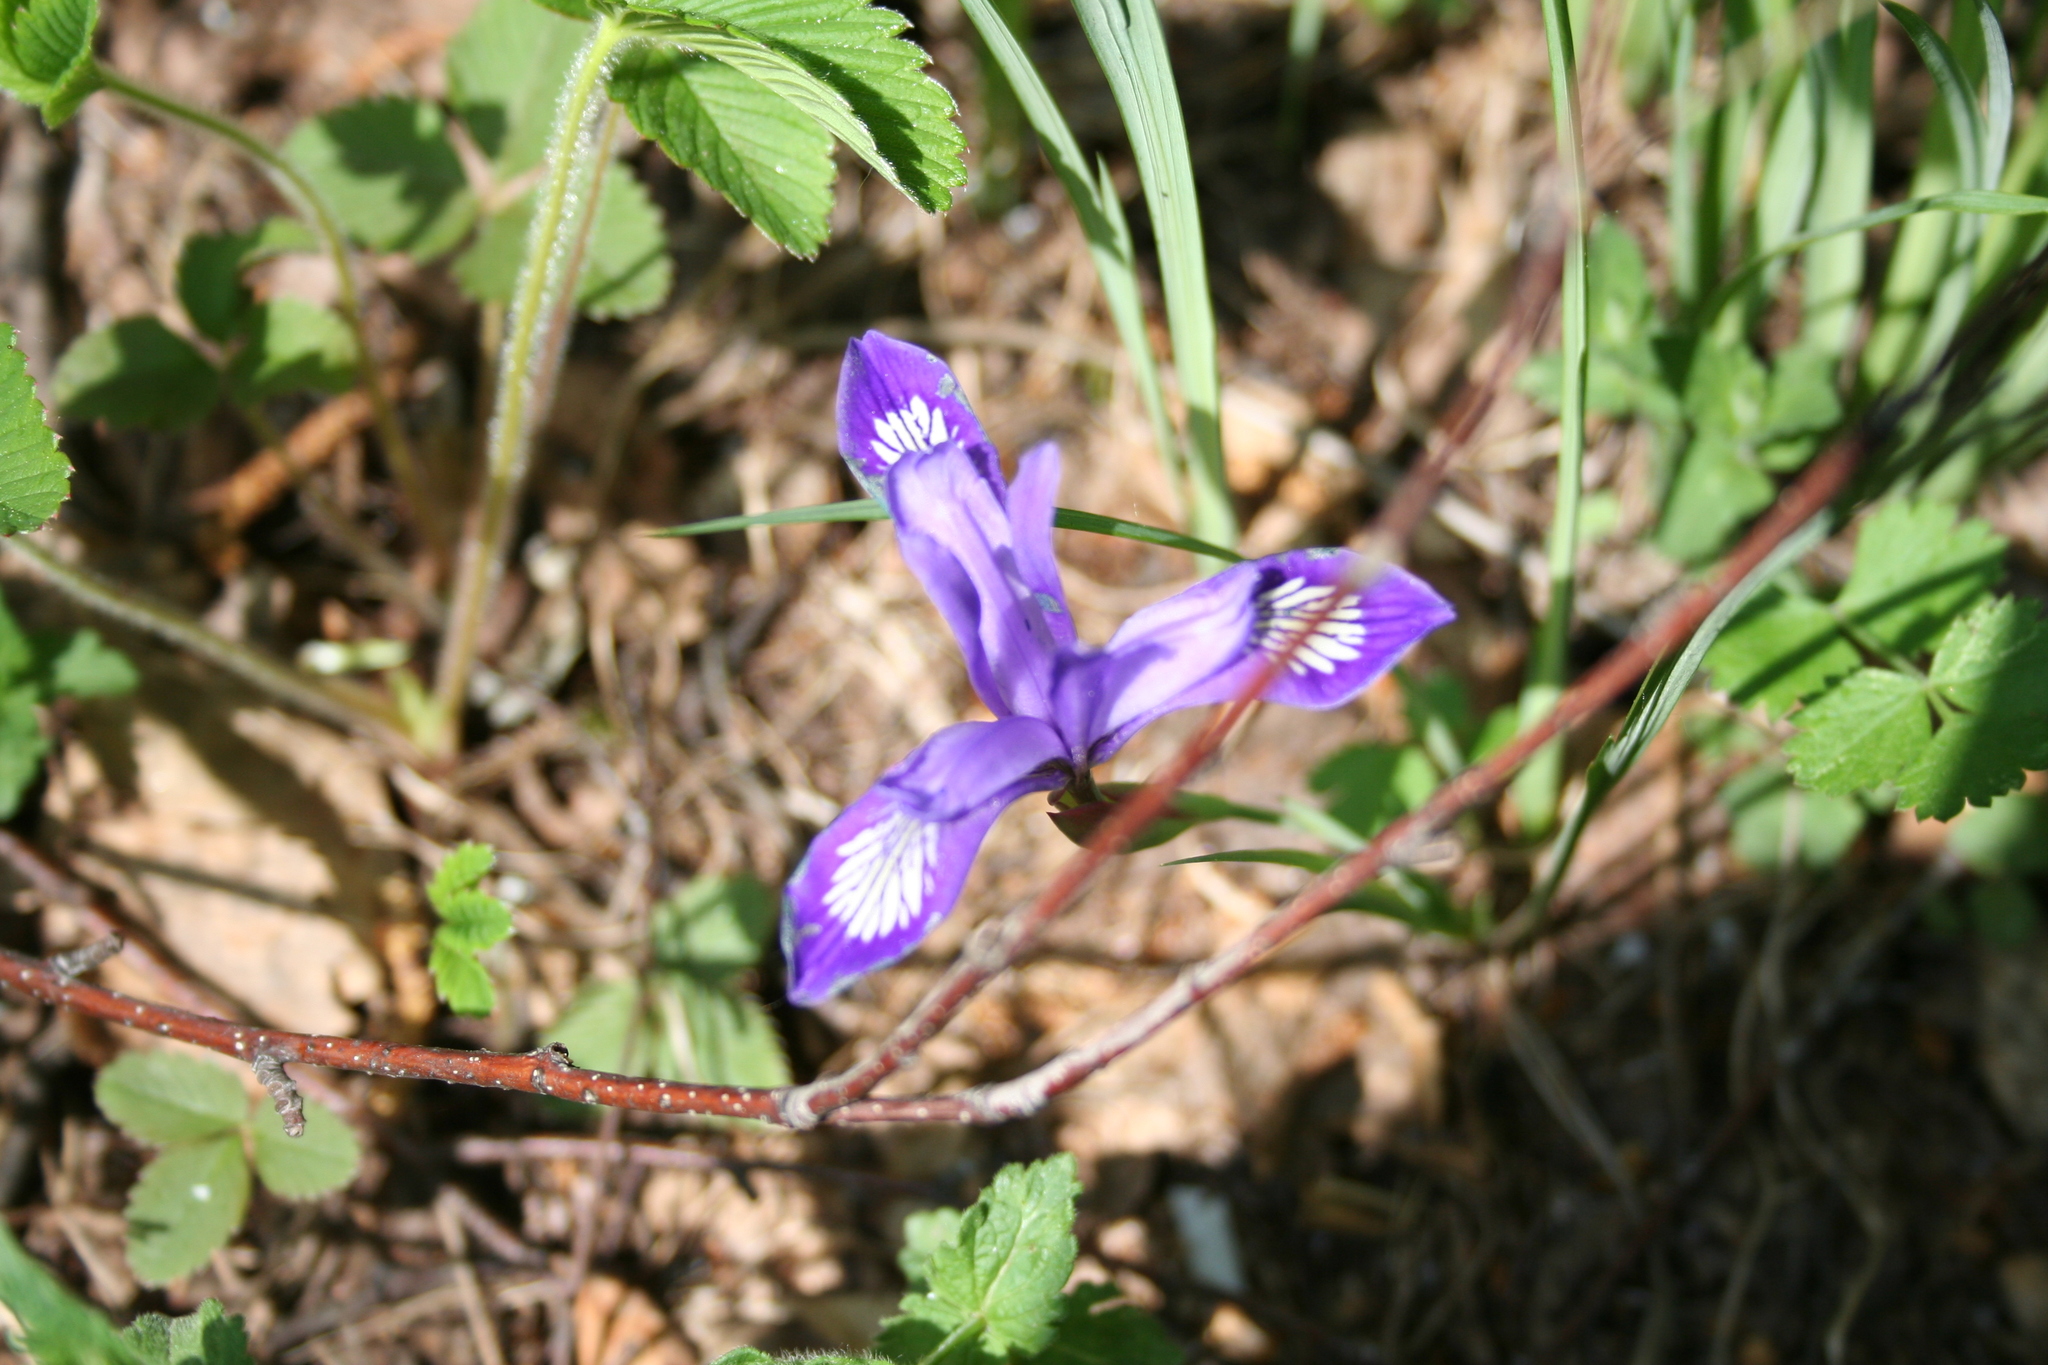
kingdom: Plantae
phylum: Tracheophyta
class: Liliopsida
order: Asparagales
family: Iridaceae
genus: Iris
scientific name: Iris ruthenica
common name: Purple-bract iris
